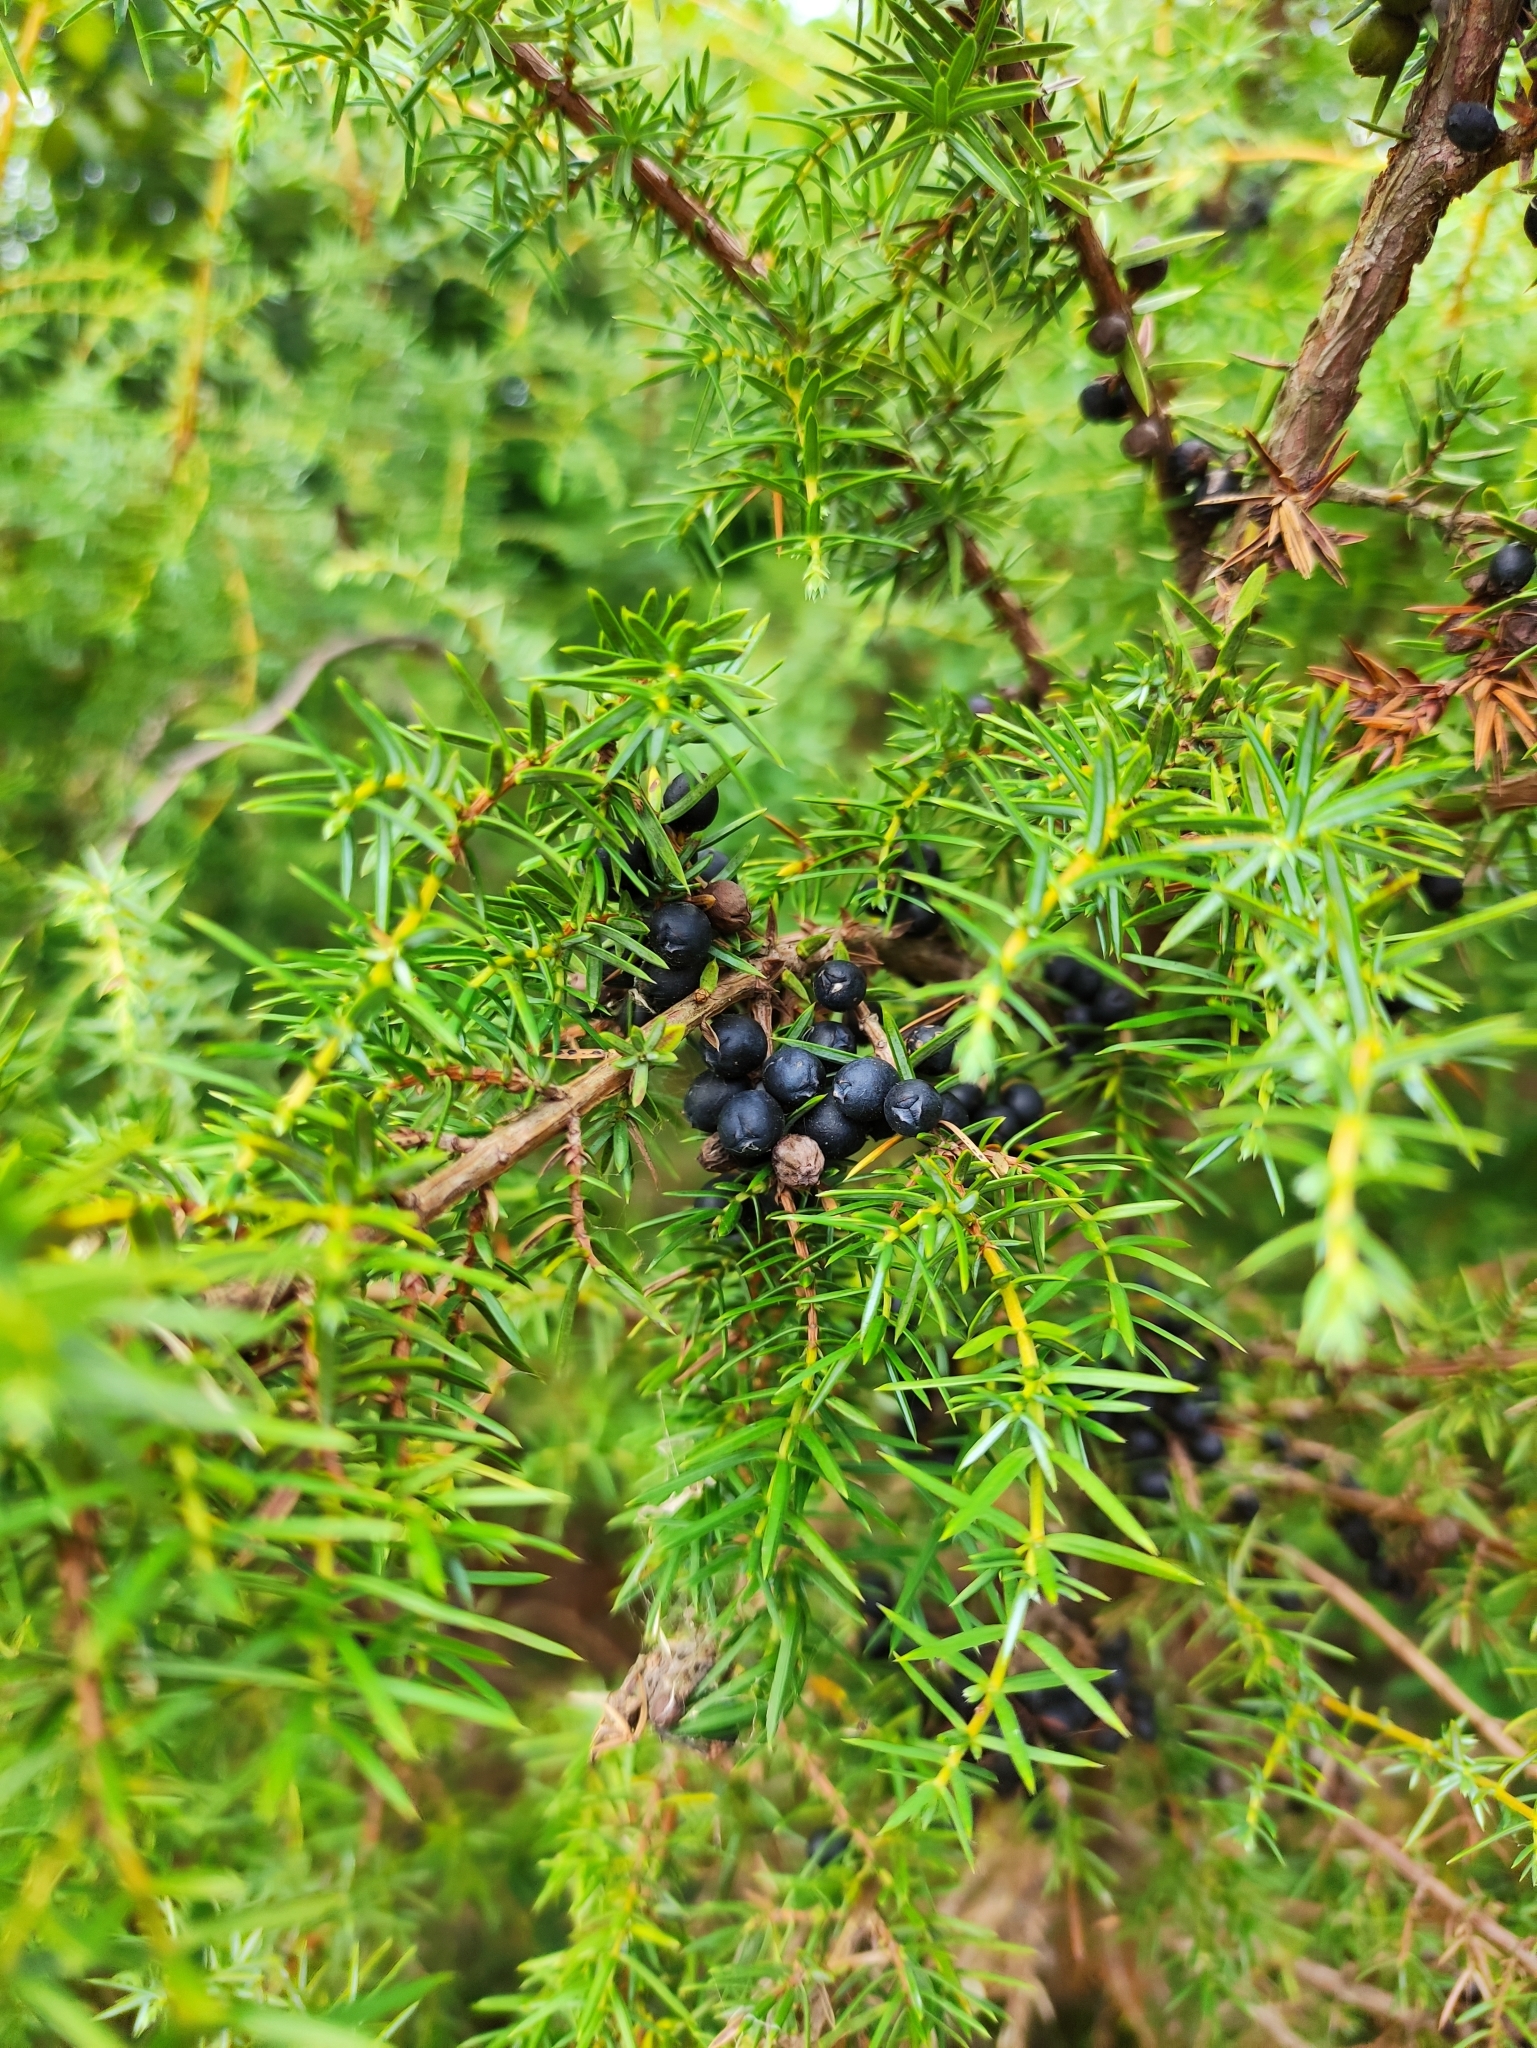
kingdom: Plantae
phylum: Tracheophyta
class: Pinopsida
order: Pinales
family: Cupressaceae
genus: Juniperus
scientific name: Juniperus communis
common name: Common juniper
